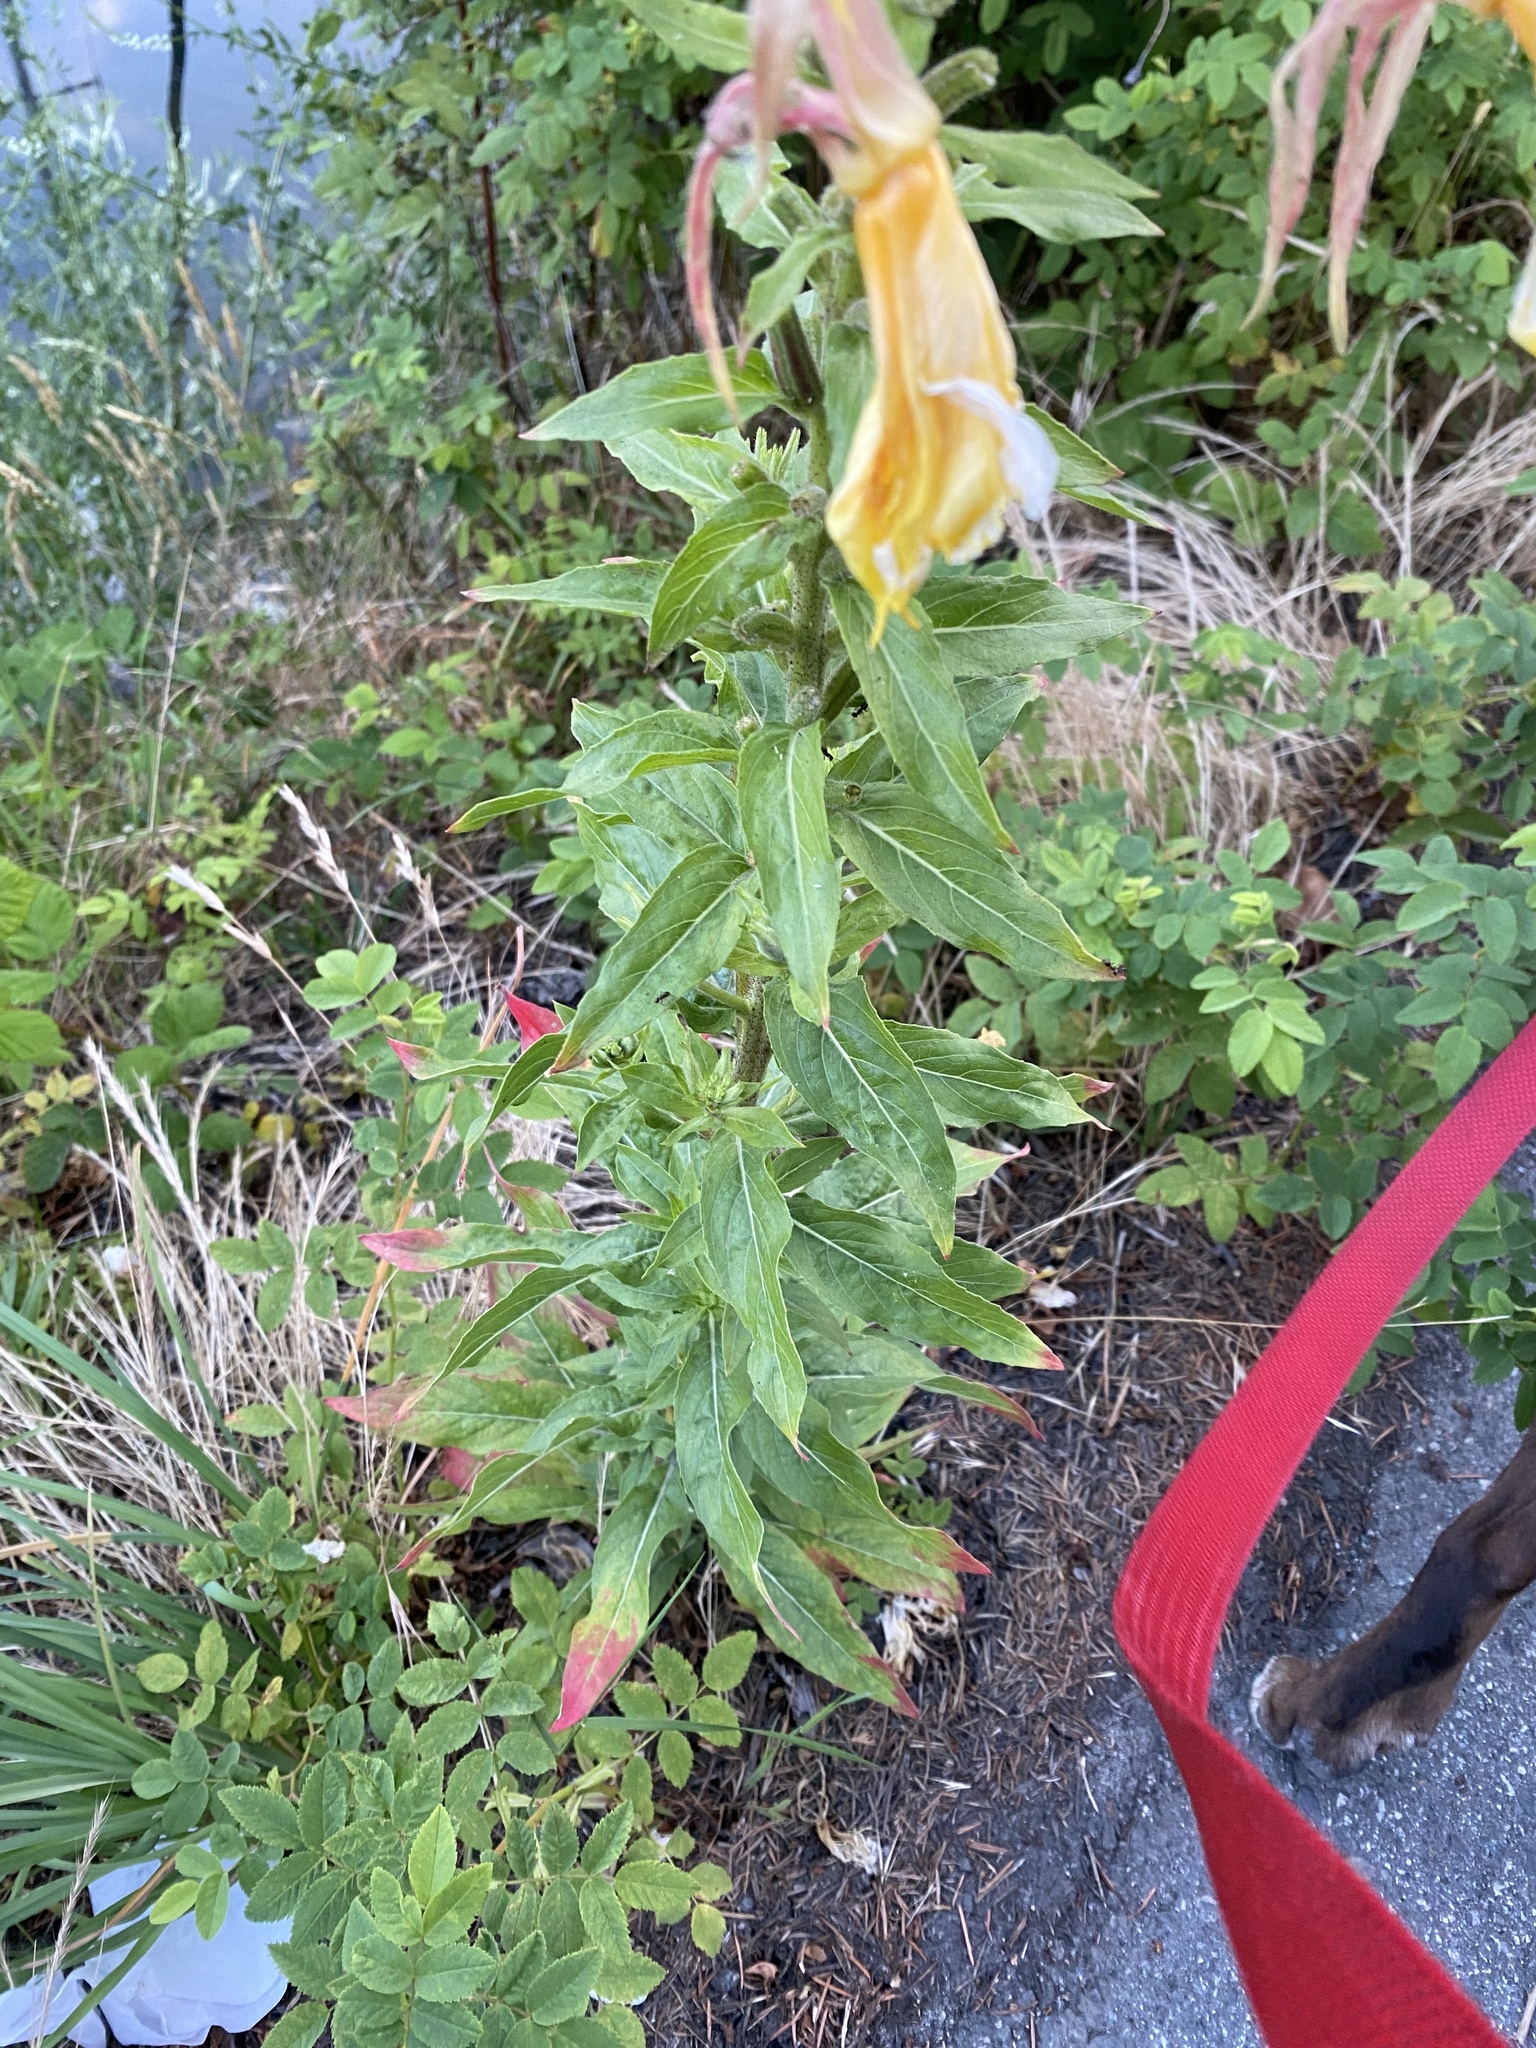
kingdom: Plantae
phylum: Tracheophyta
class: Magnoliopsida
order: Myrtales
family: Onagraceae
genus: Oenothera
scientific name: Oenothera glazioviana
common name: Large-flowered evening-primrose
